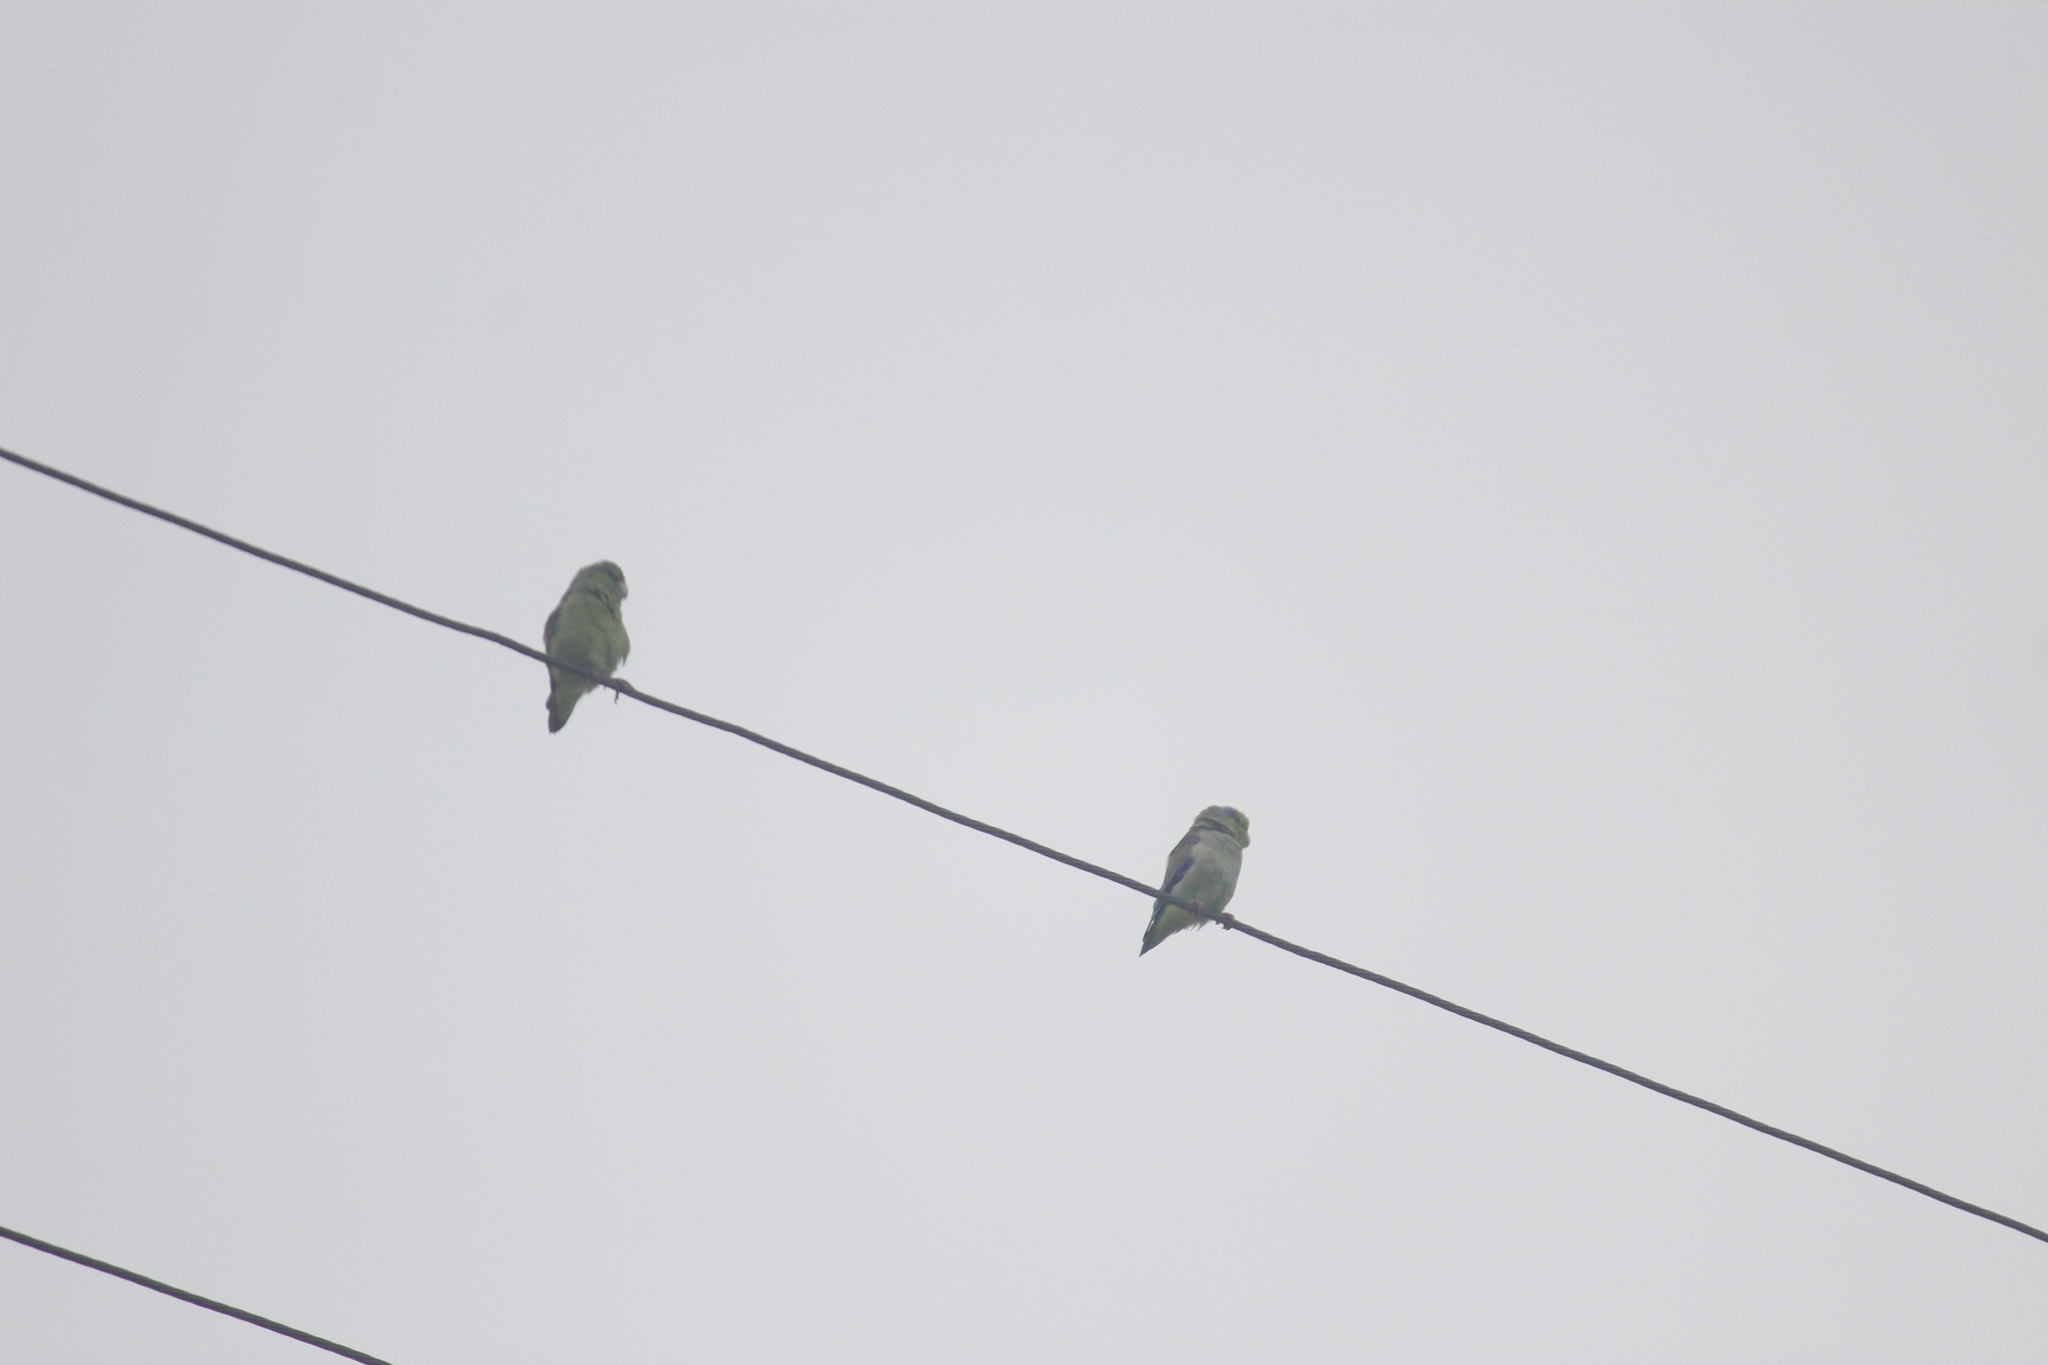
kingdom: Animalia
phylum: Chordata
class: Aves
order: Psittaciformes
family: Psittacidae
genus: Forpus
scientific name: Forpus coelestis
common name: Pacific parrotlet
